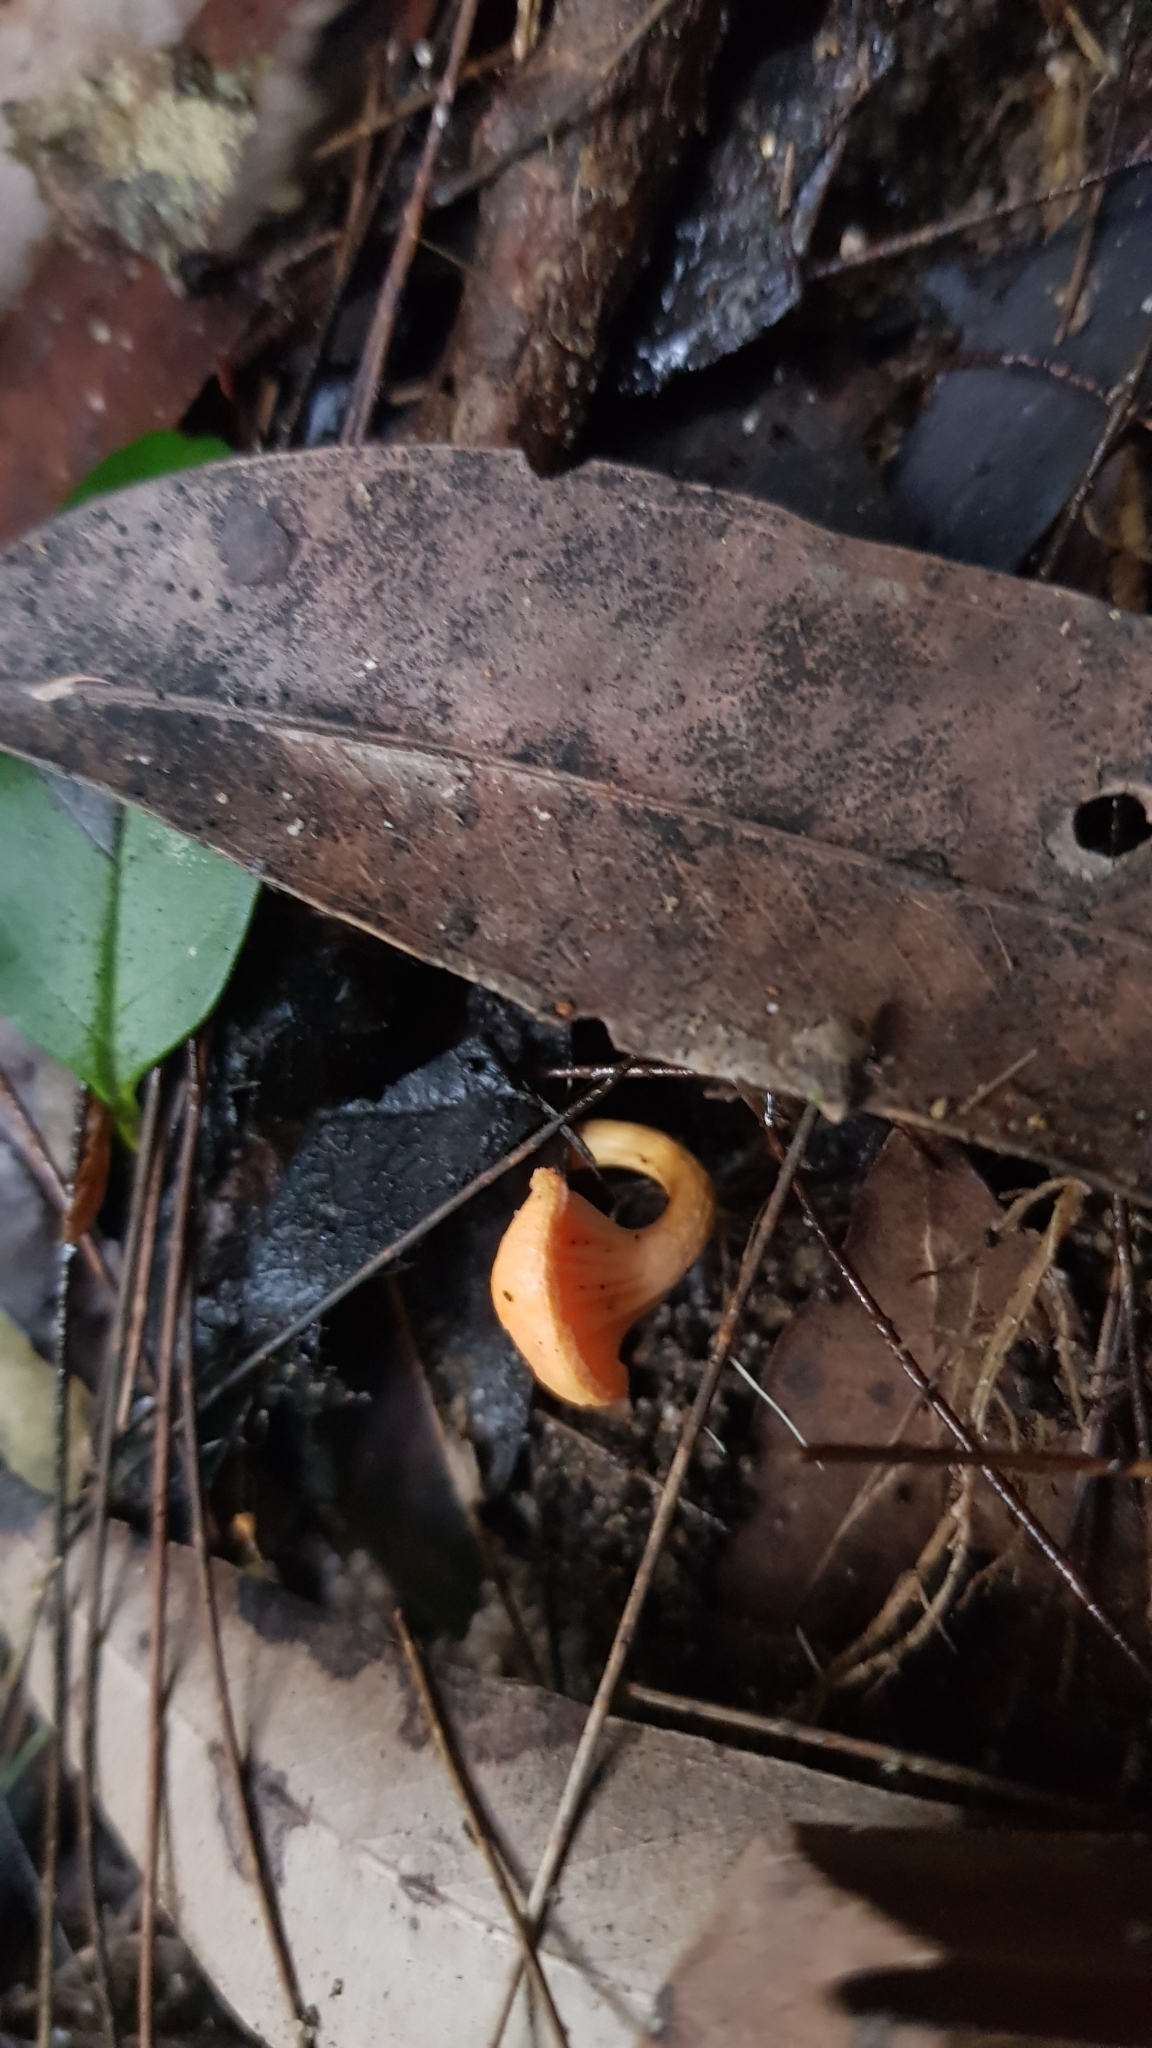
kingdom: Fungi
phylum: Basidiomycota
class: Agaricomycetes
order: Cantharellales
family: Hydnaceae
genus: Cantharellus
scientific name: Cantharellus
